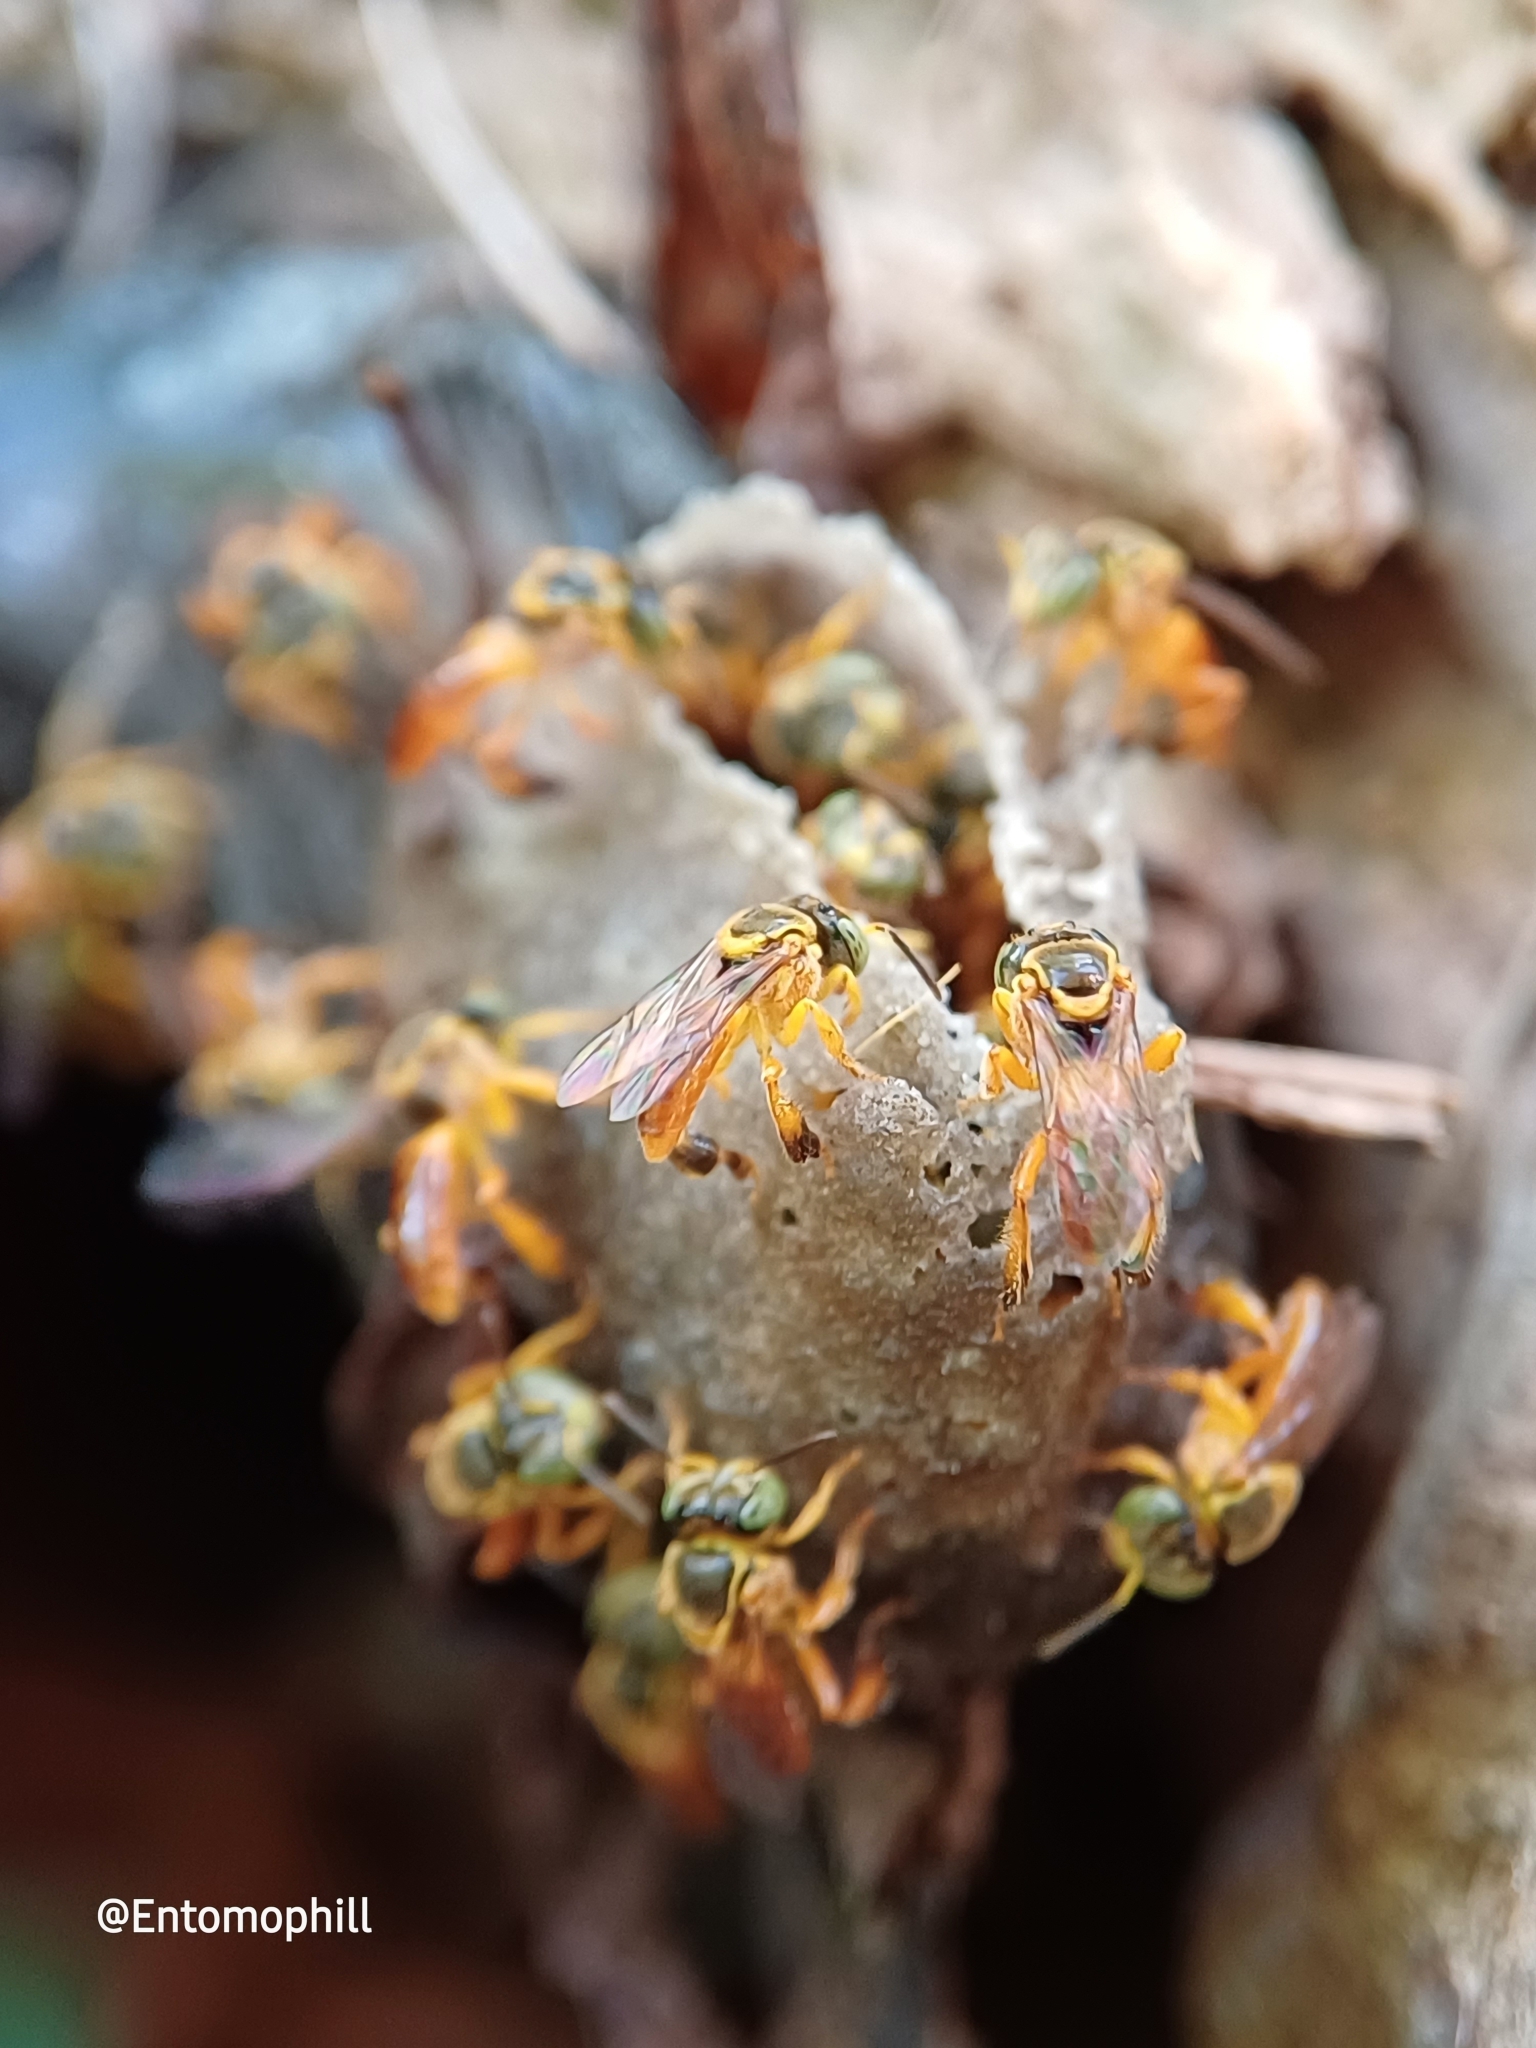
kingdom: Animalia
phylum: Arthropoda
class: Insecta
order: Hymenoptera
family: Apidae
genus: Tetragonisca
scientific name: Tetragonisca fiebrigi
